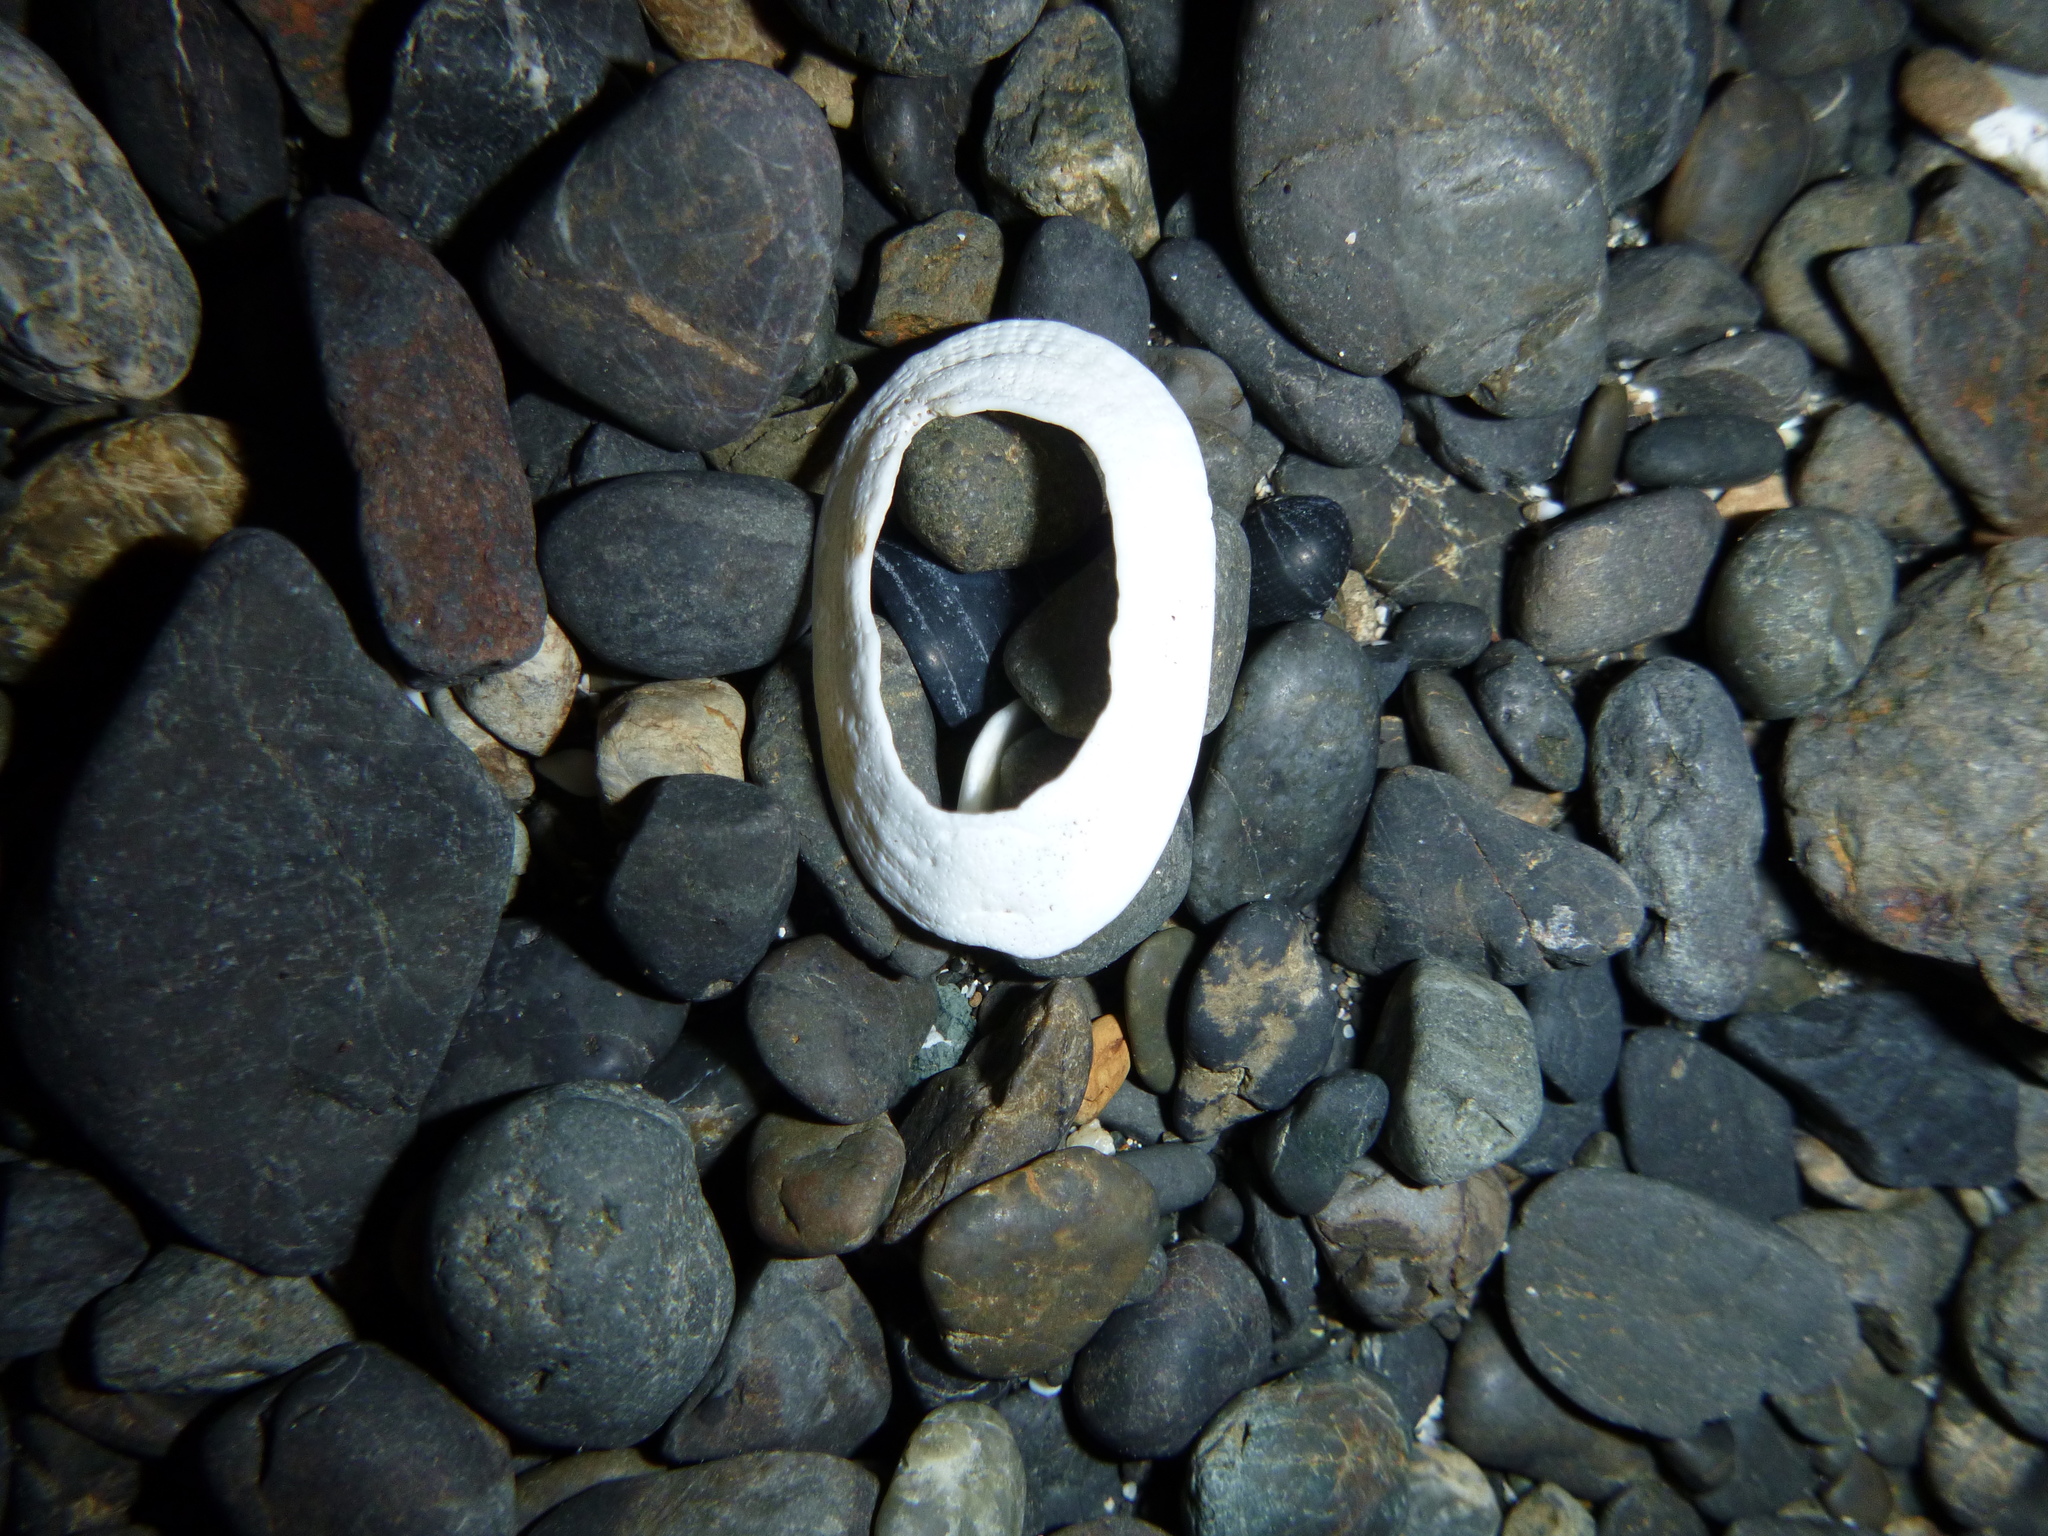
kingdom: Animalia
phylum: Mollusca
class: Gastropoda
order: Lepetellida
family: Fissurellidae
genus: Tugali
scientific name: Tugali elegans
